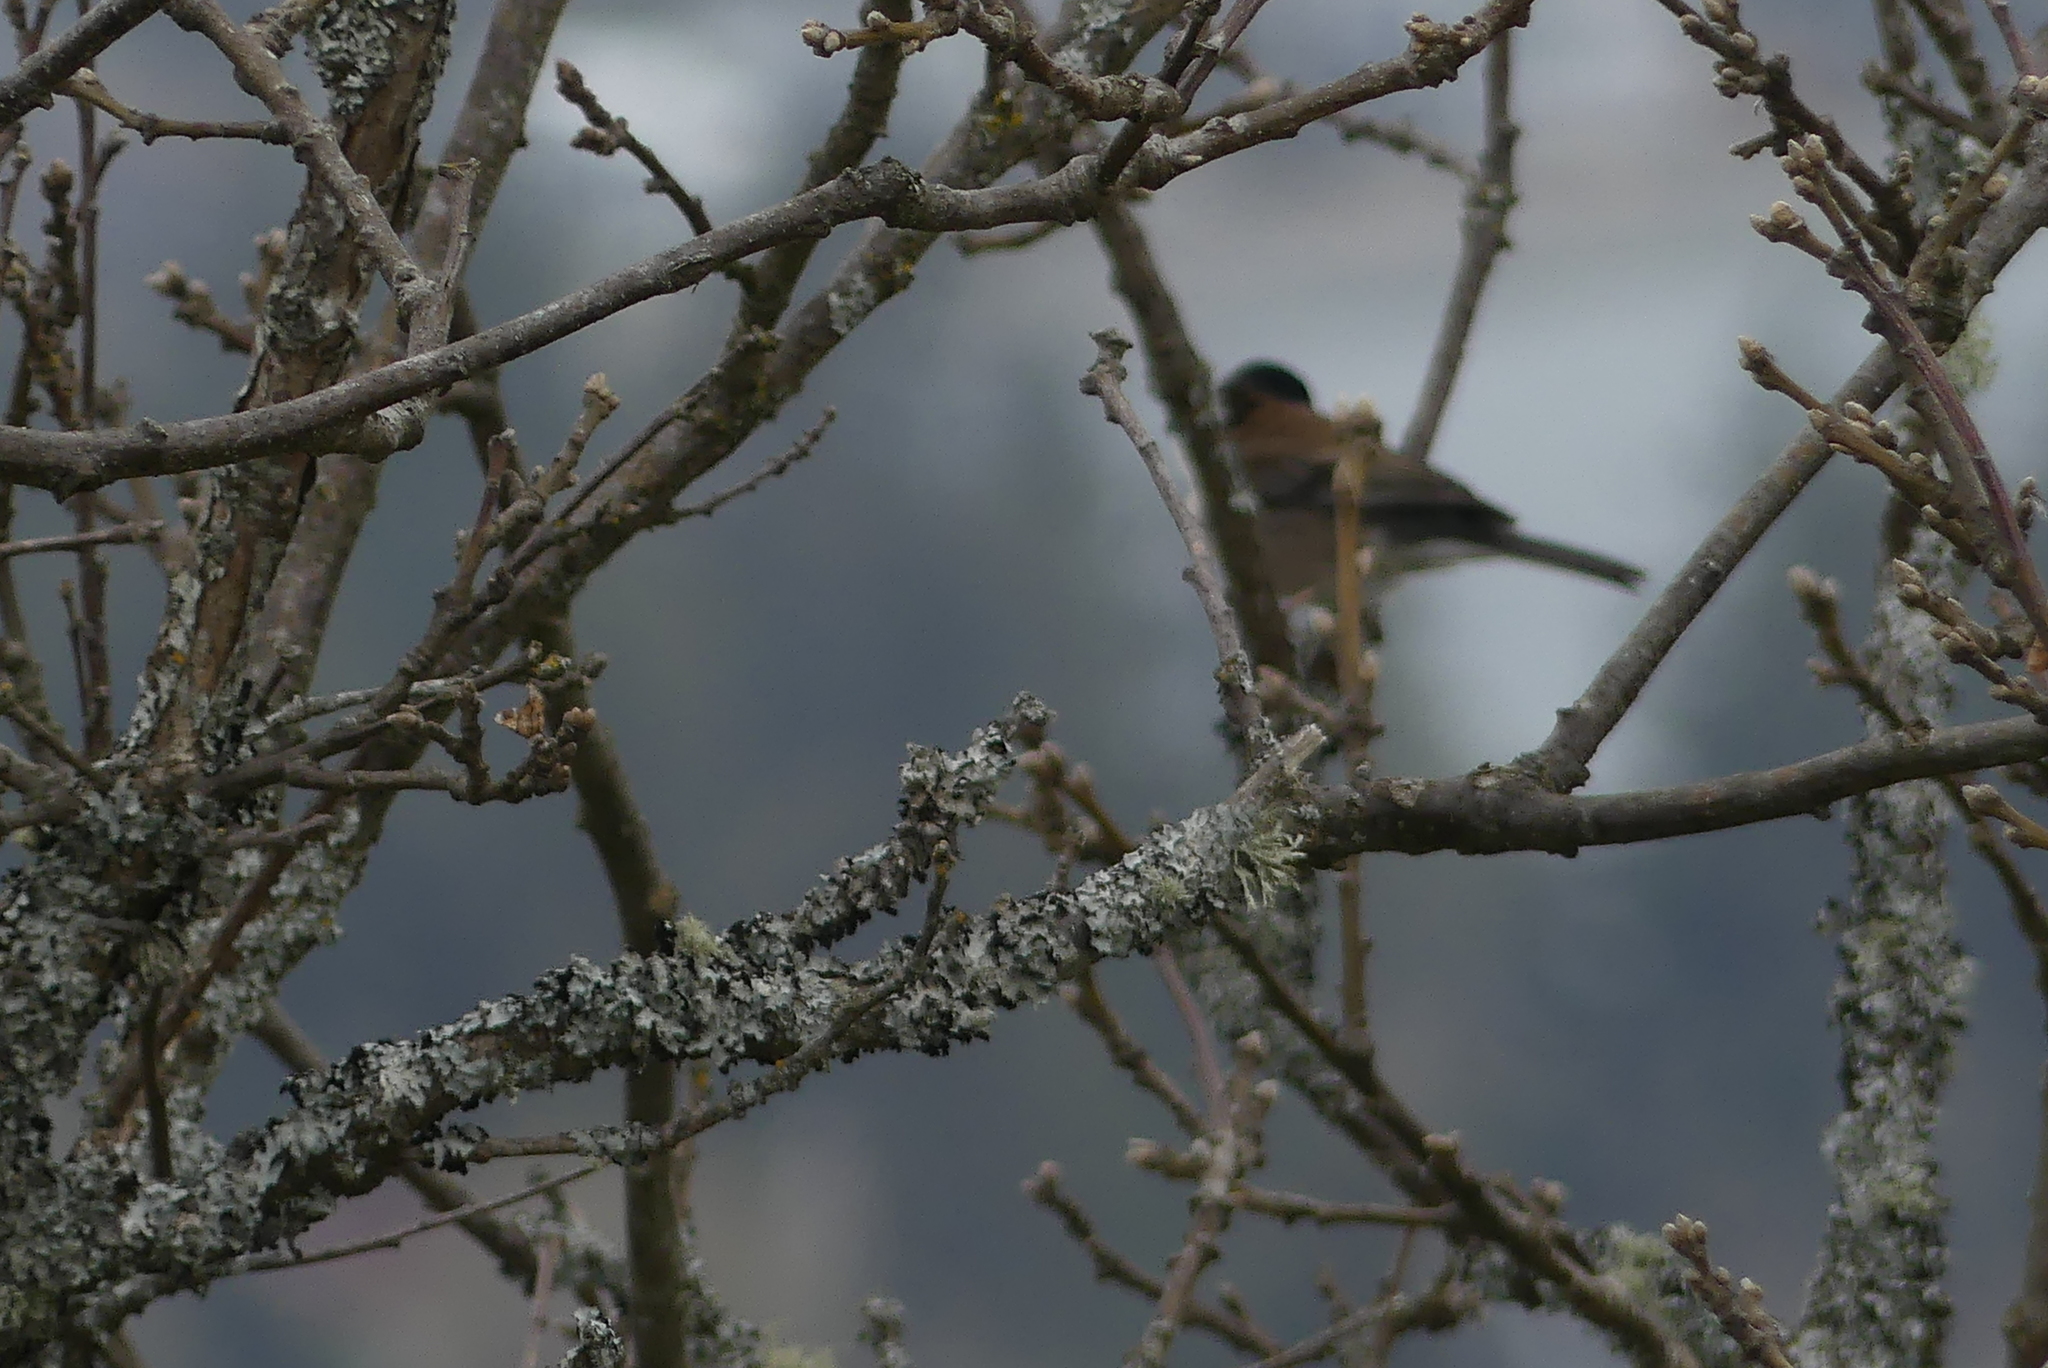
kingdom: Animalia
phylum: Chordata
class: Aves
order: Passeriformes
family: Passerellidae
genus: Junco
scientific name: Junco hyemalis
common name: Dark-eyed junco
